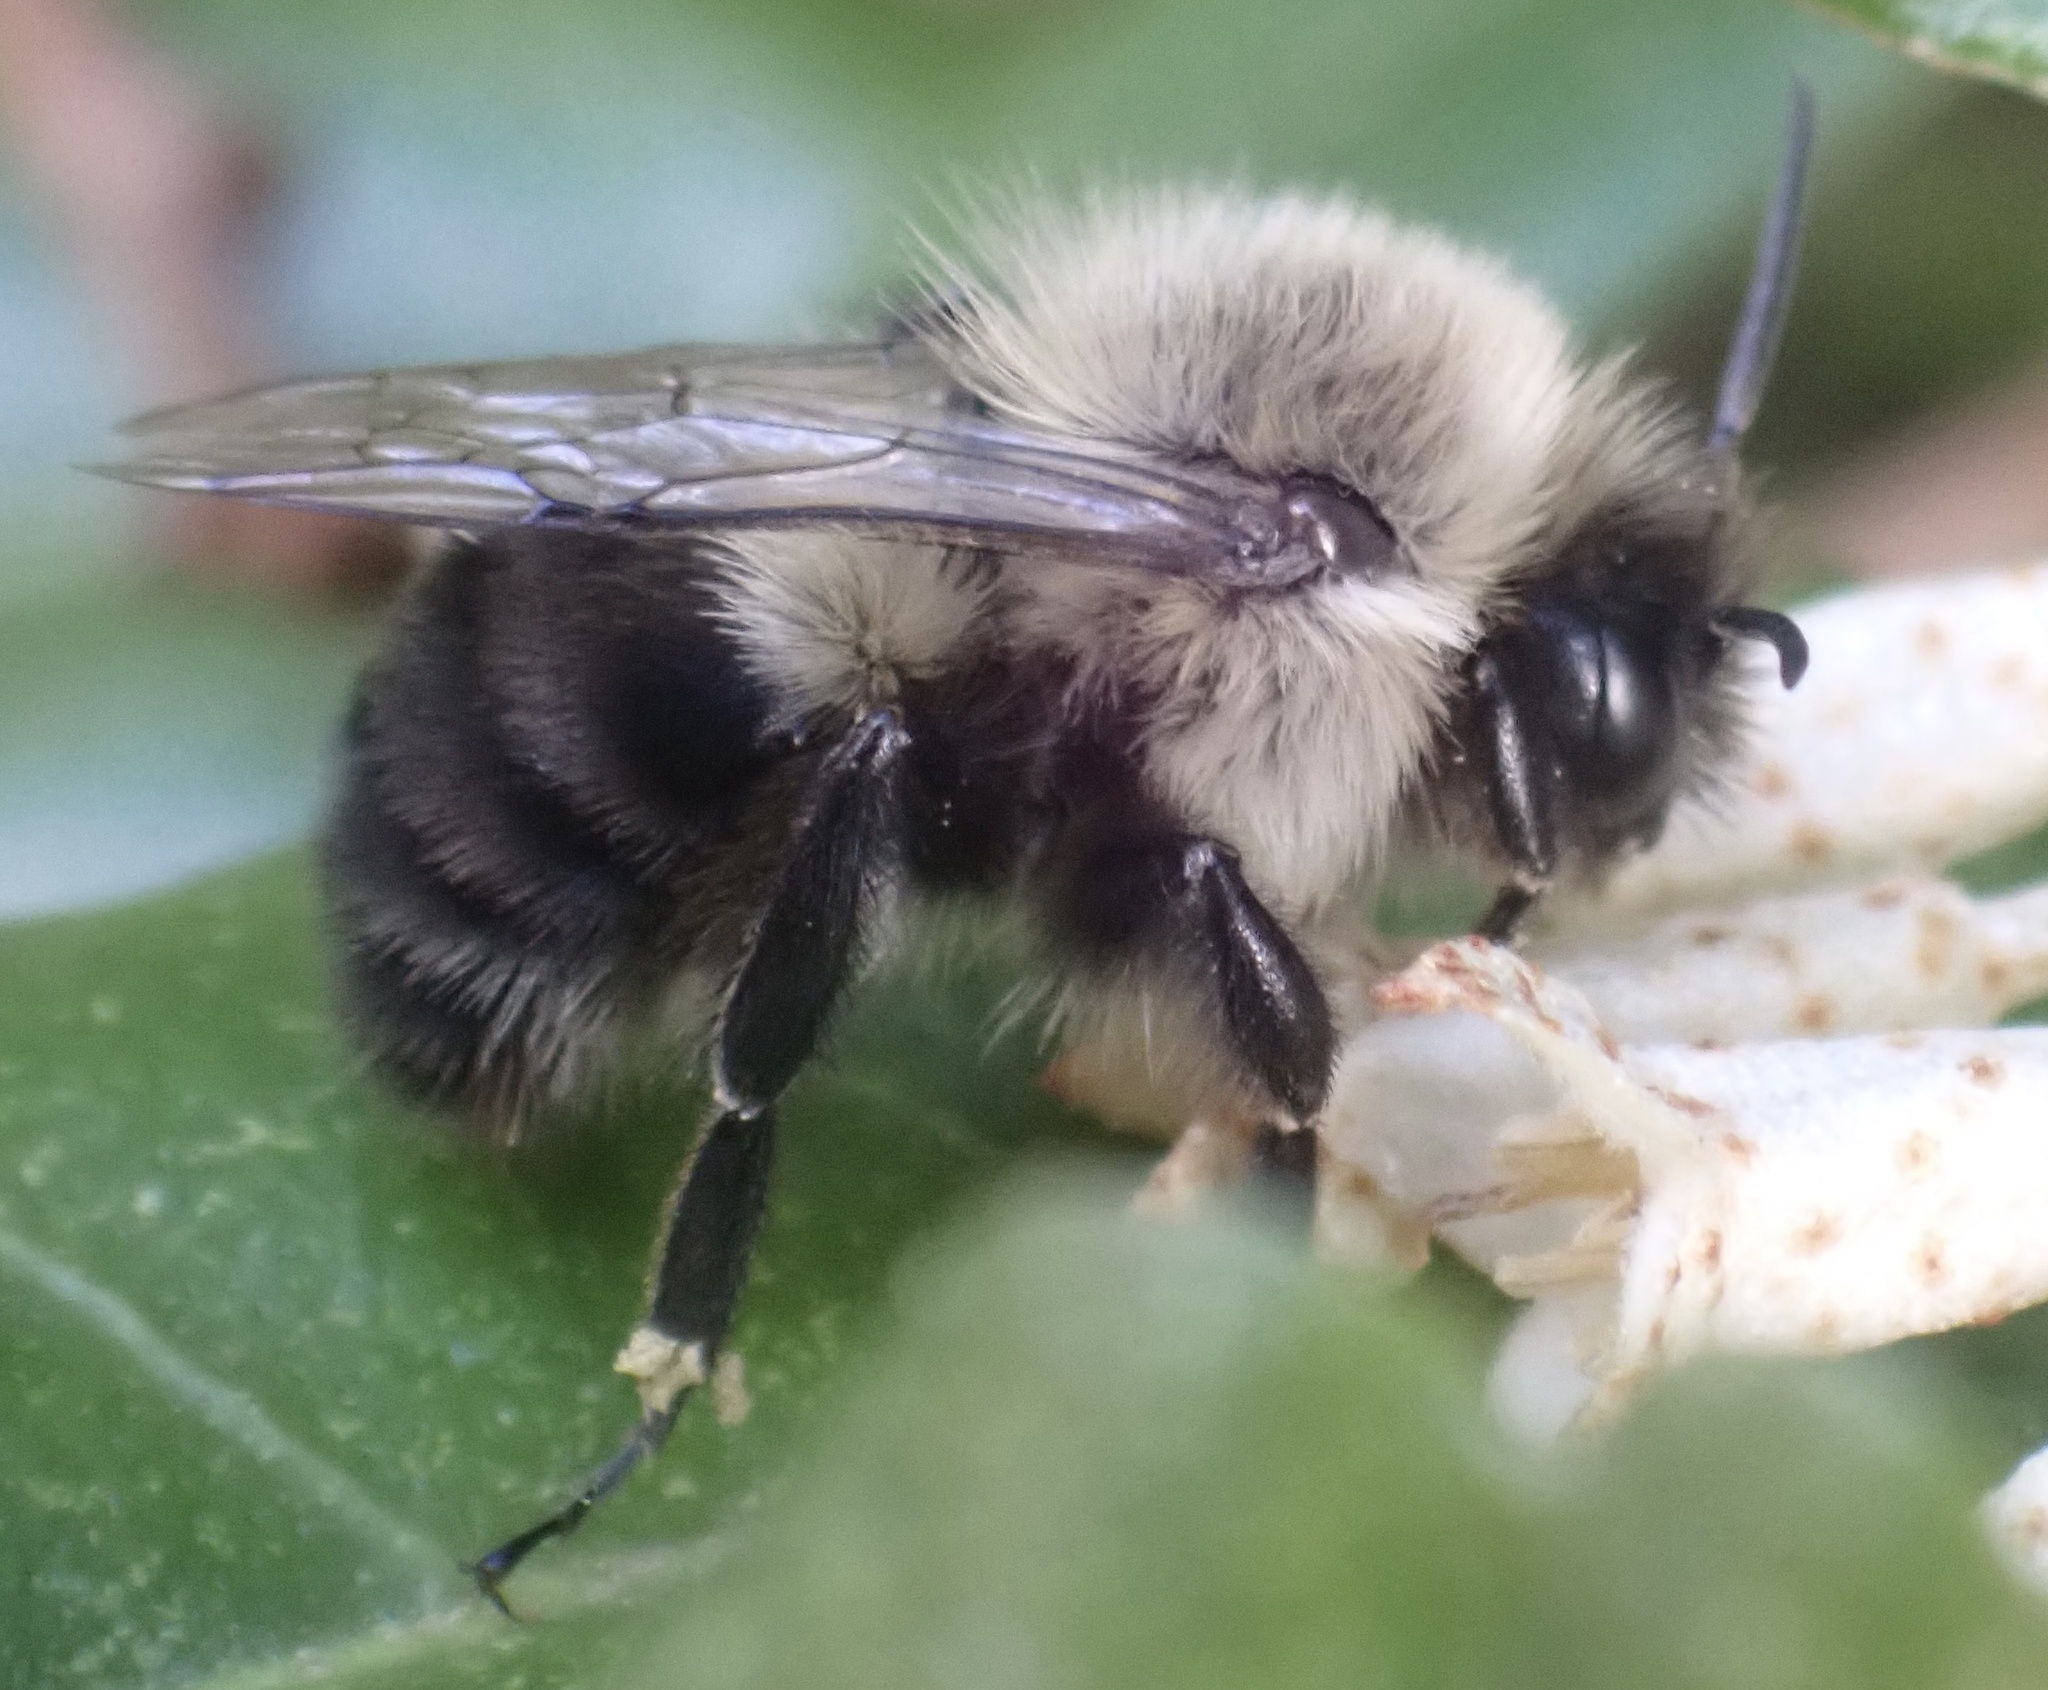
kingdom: Animalia
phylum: Arthropoda
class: Insecta
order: Hymenoptera
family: Apidae
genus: Bombus
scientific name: Bombus impatiens
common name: Common eastern bumble bee
